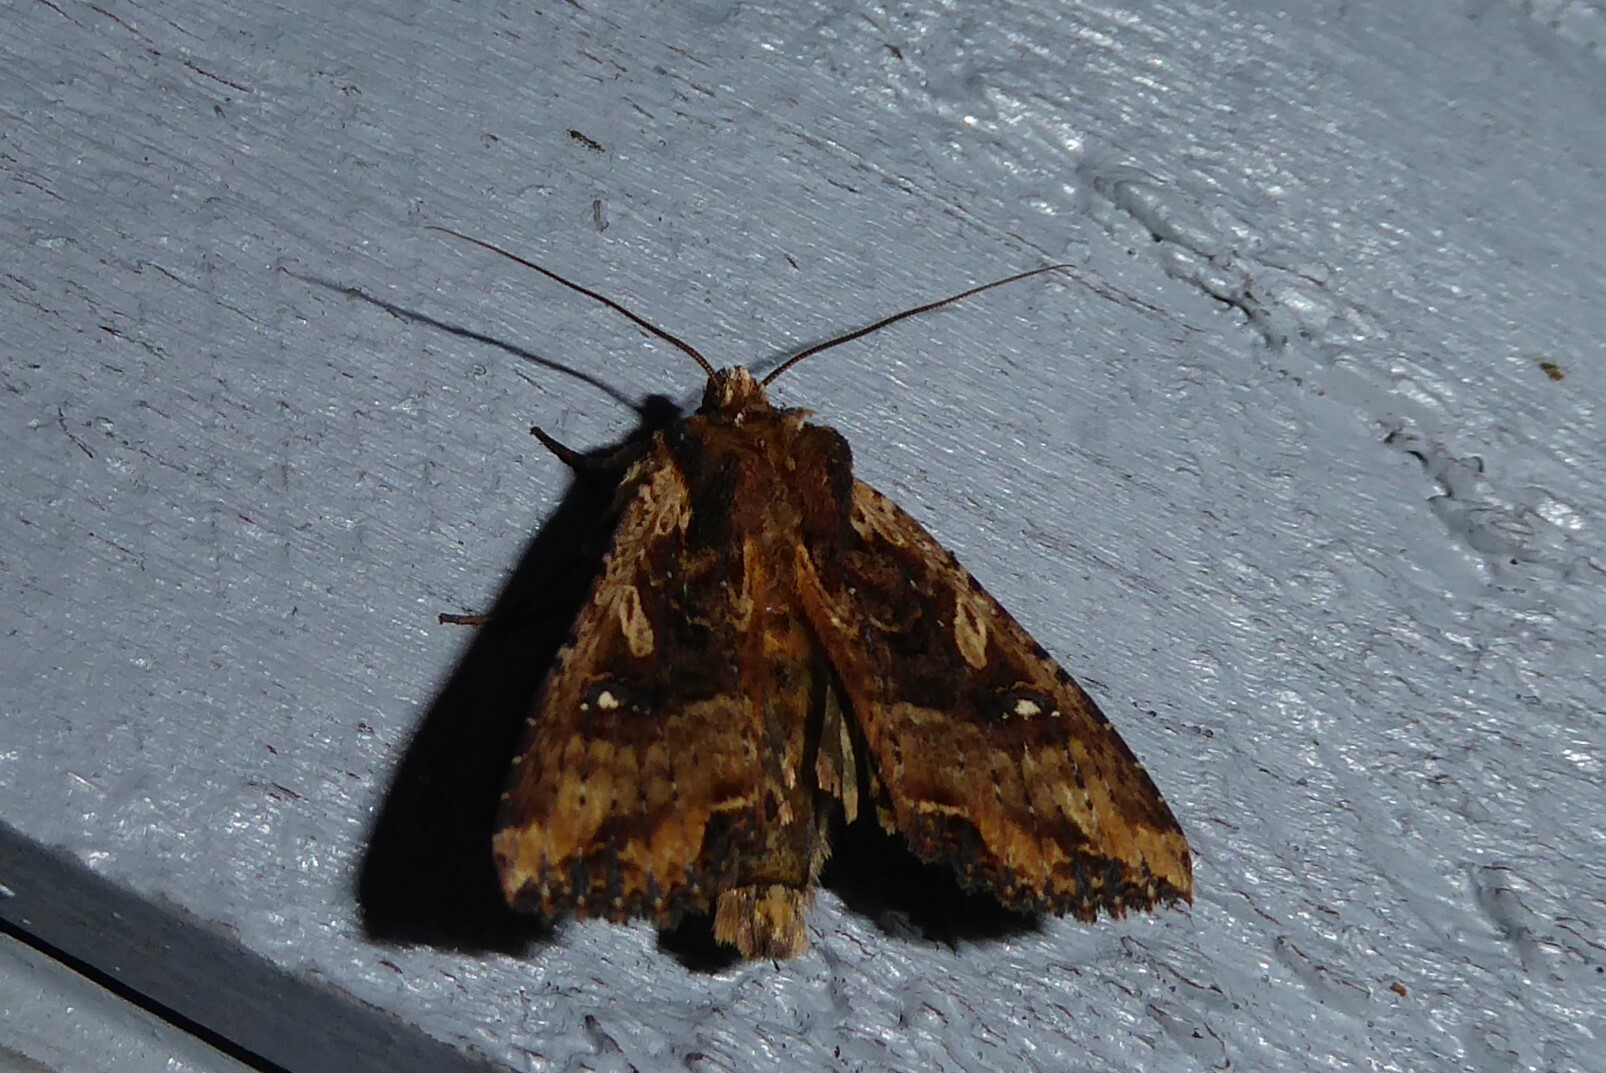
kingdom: Animalia
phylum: Arthropoda
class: Insecta
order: Lepidoptera
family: Noctuidae
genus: Meterana
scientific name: Meterana stipata
